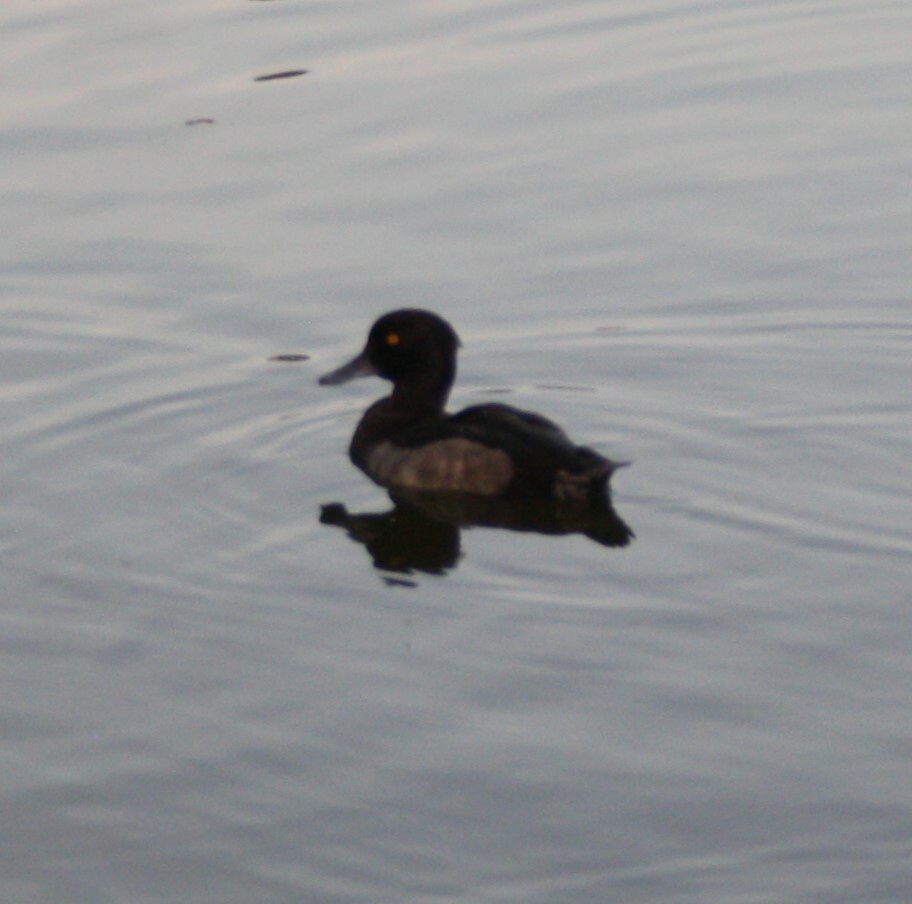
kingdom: Animalia
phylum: Chordata
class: Aves
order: Anseriformes
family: Anatidae
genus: Aythya
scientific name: Aythya fuligula
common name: Tufted duck
